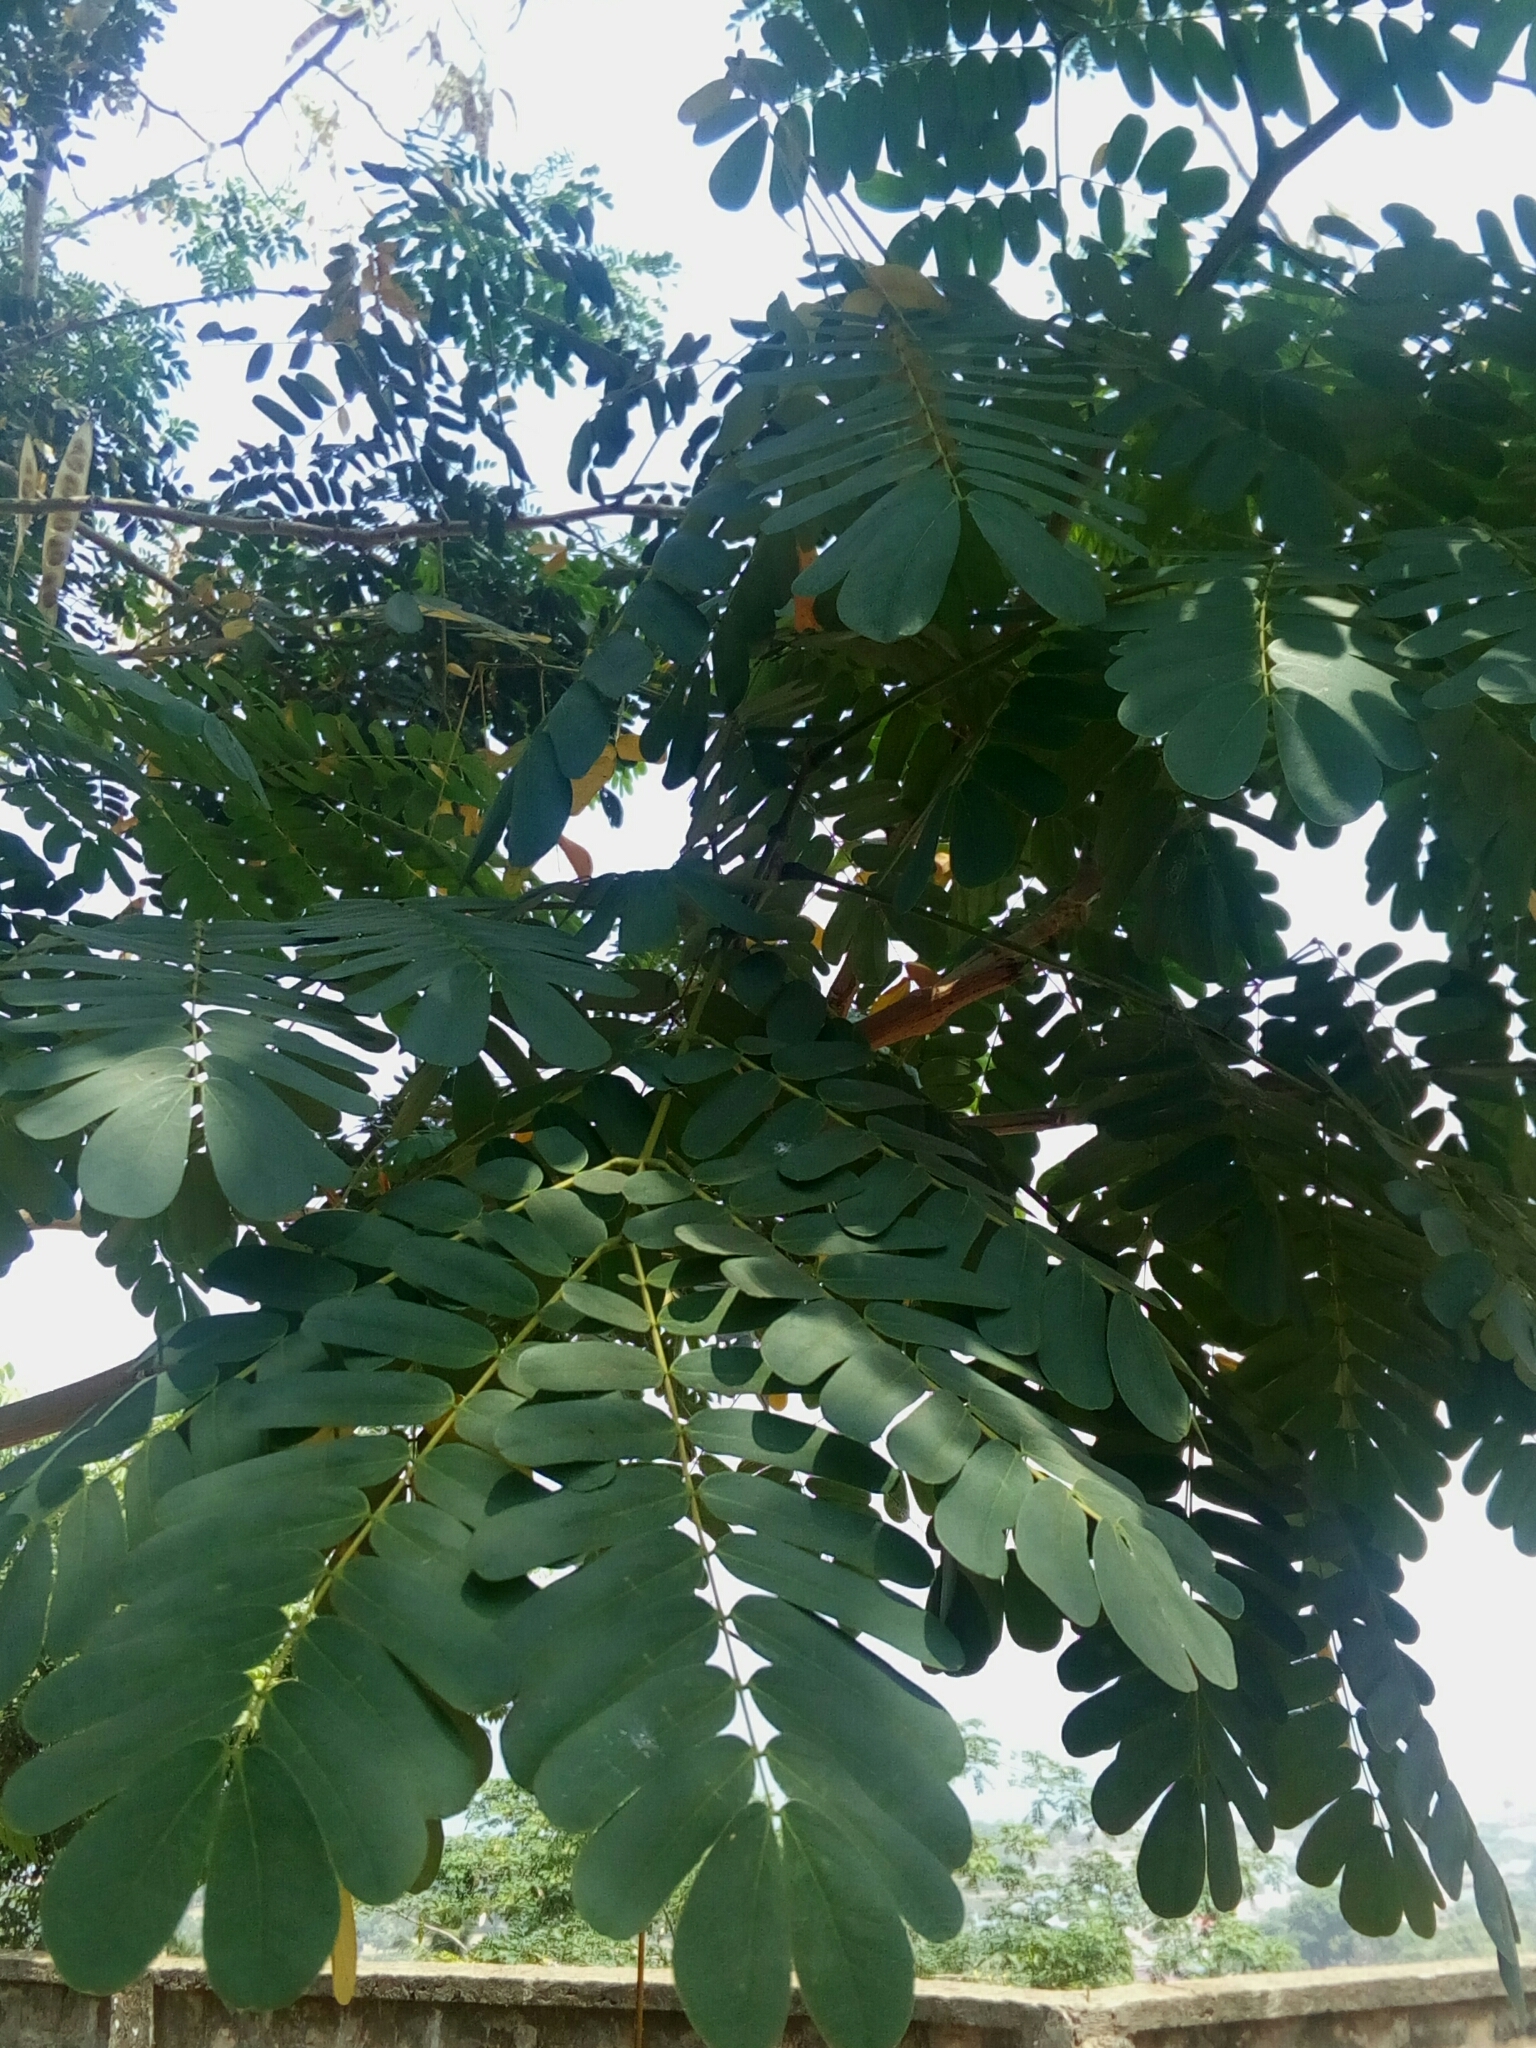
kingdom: Plantae
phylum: Tracheophyta
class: Magnoliopsida
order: Fabales
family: Fabaceae
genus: Albizia
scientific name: Albizia lebbeck
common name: Woman's tongue
